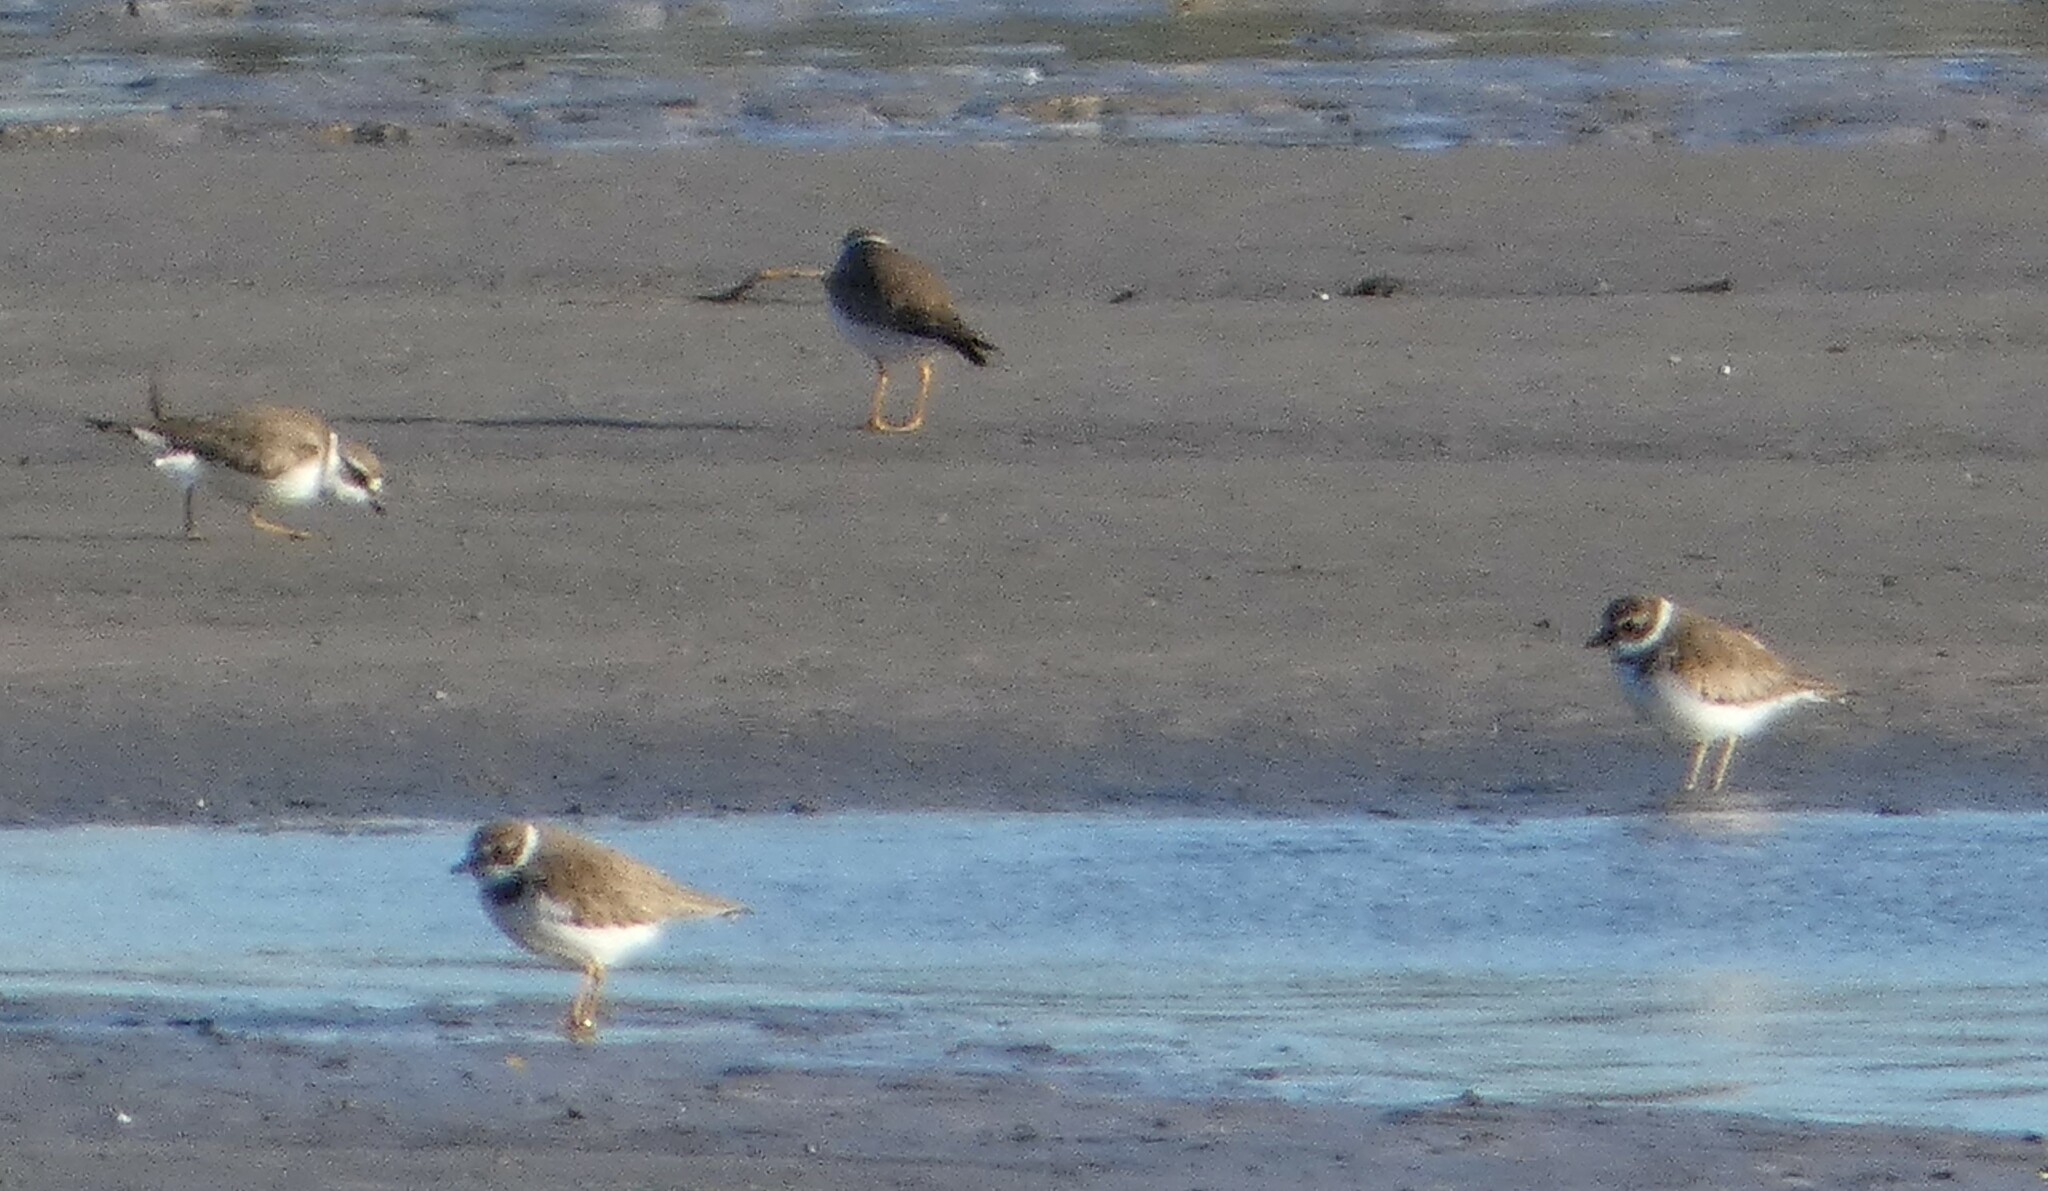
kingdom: Animalia
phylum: Chordata
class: Aves
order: Charadriiformes
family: Charadriidae
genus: Charadrius
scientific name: Charadrius semipalmatus
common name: Semipalmated plover
